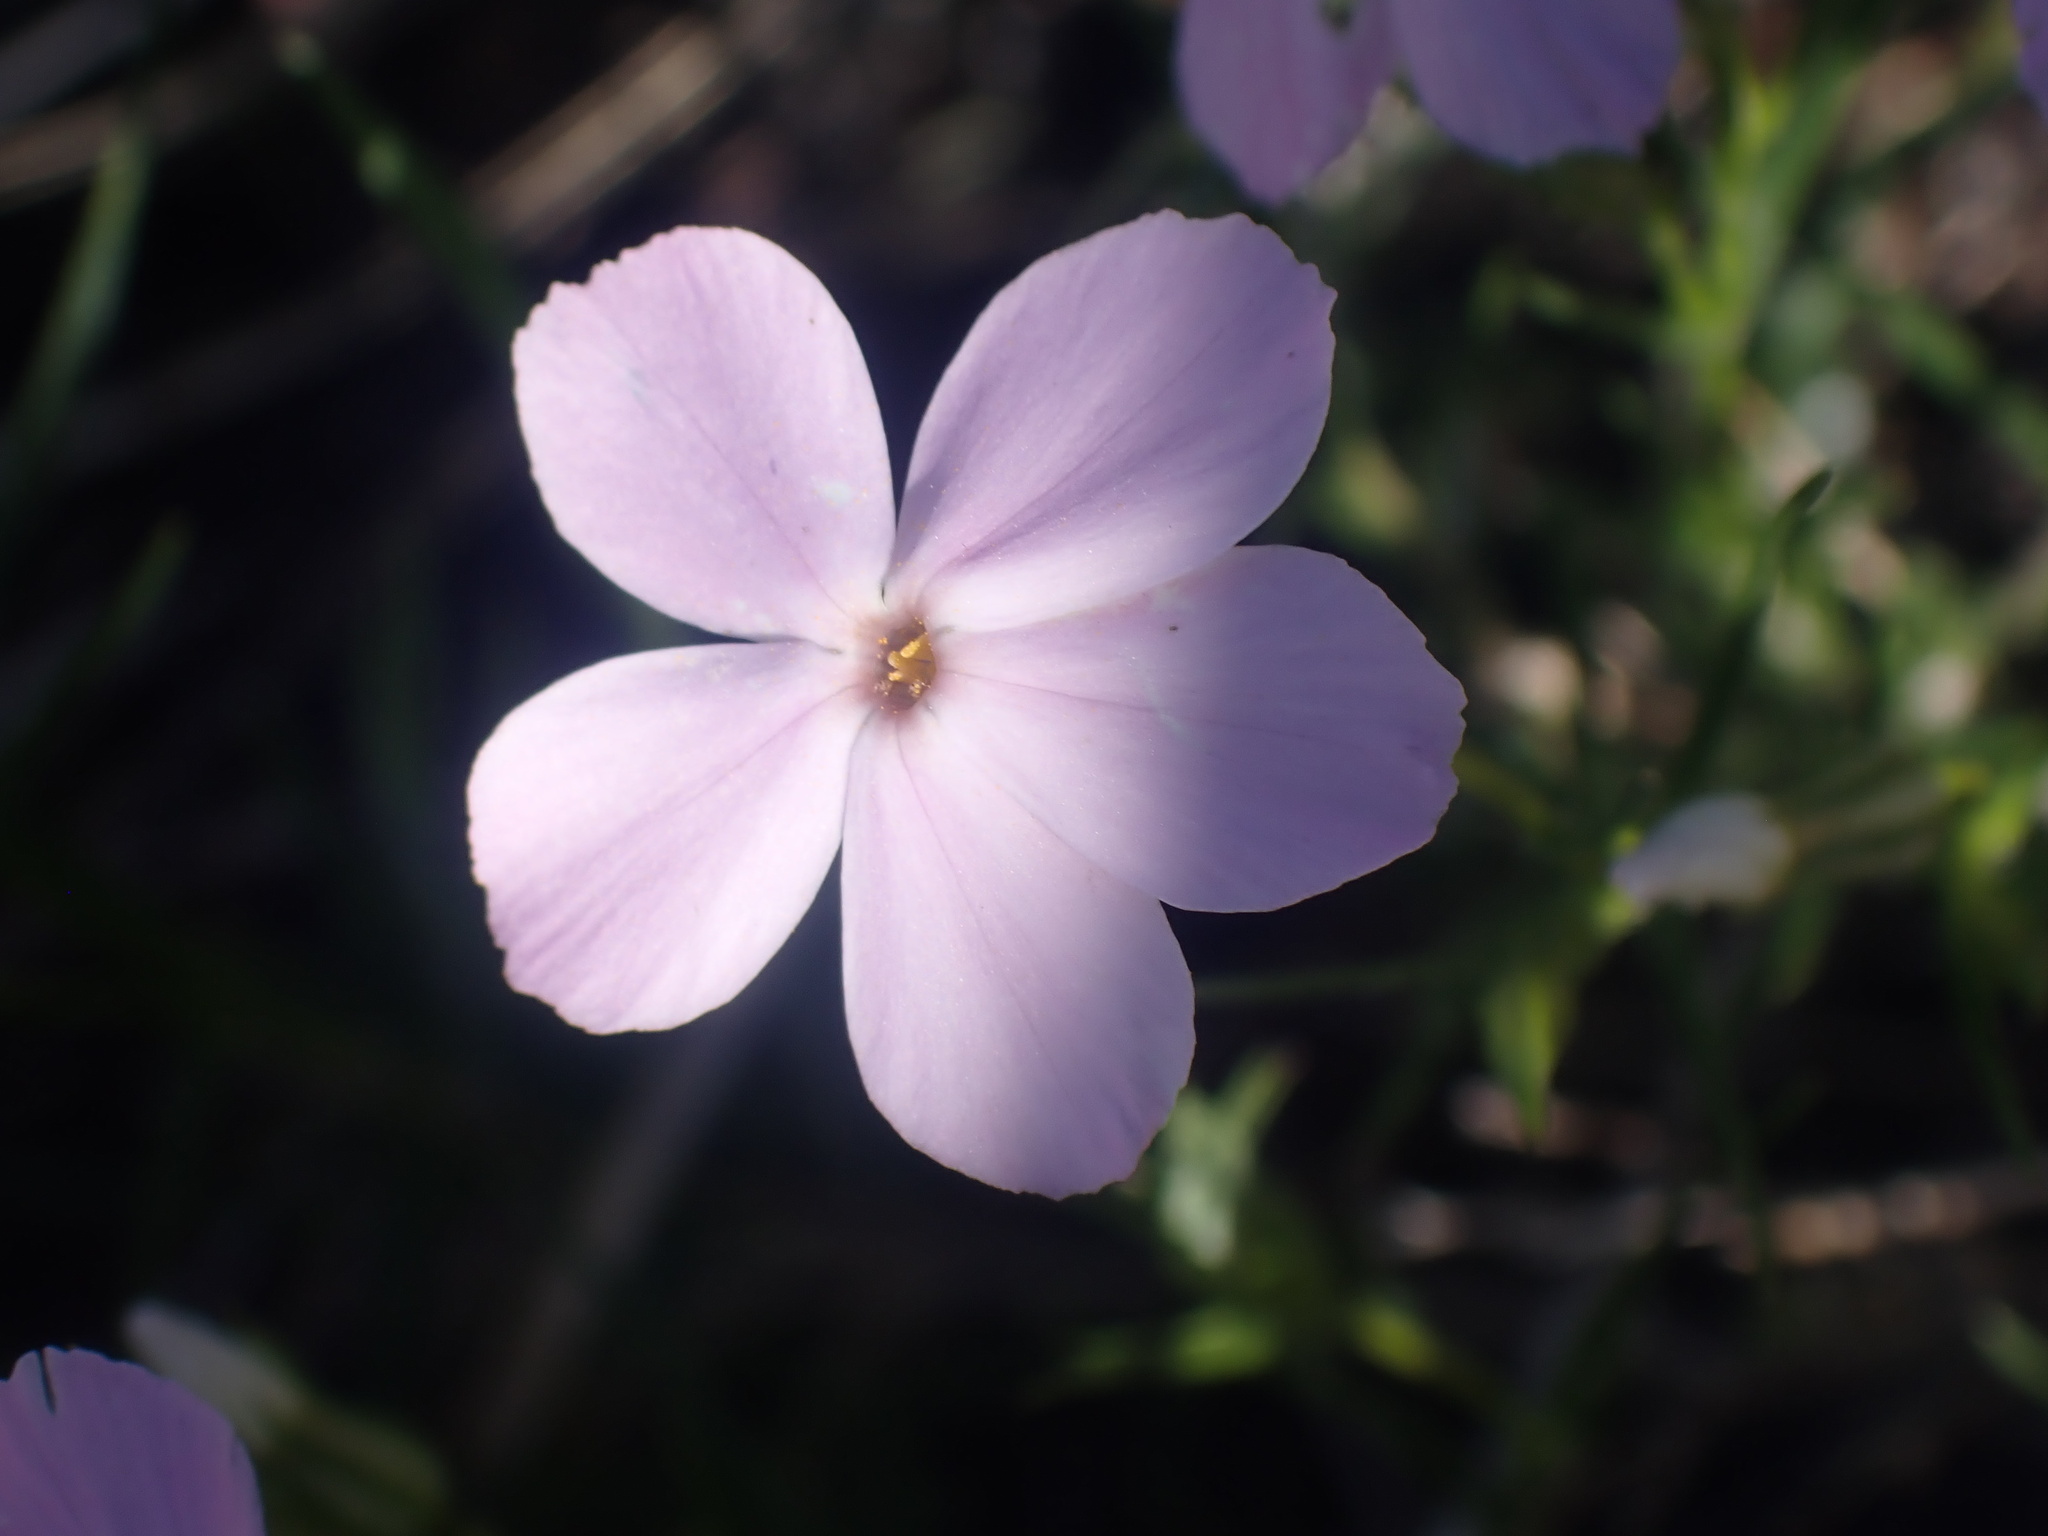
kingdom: Plantae
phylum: Tracheophyta
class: Magnoliopsida
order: Ericales
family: Polemoniaceae
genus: Phlox
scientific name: Phlox longifolia
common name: Longleaf phlox
